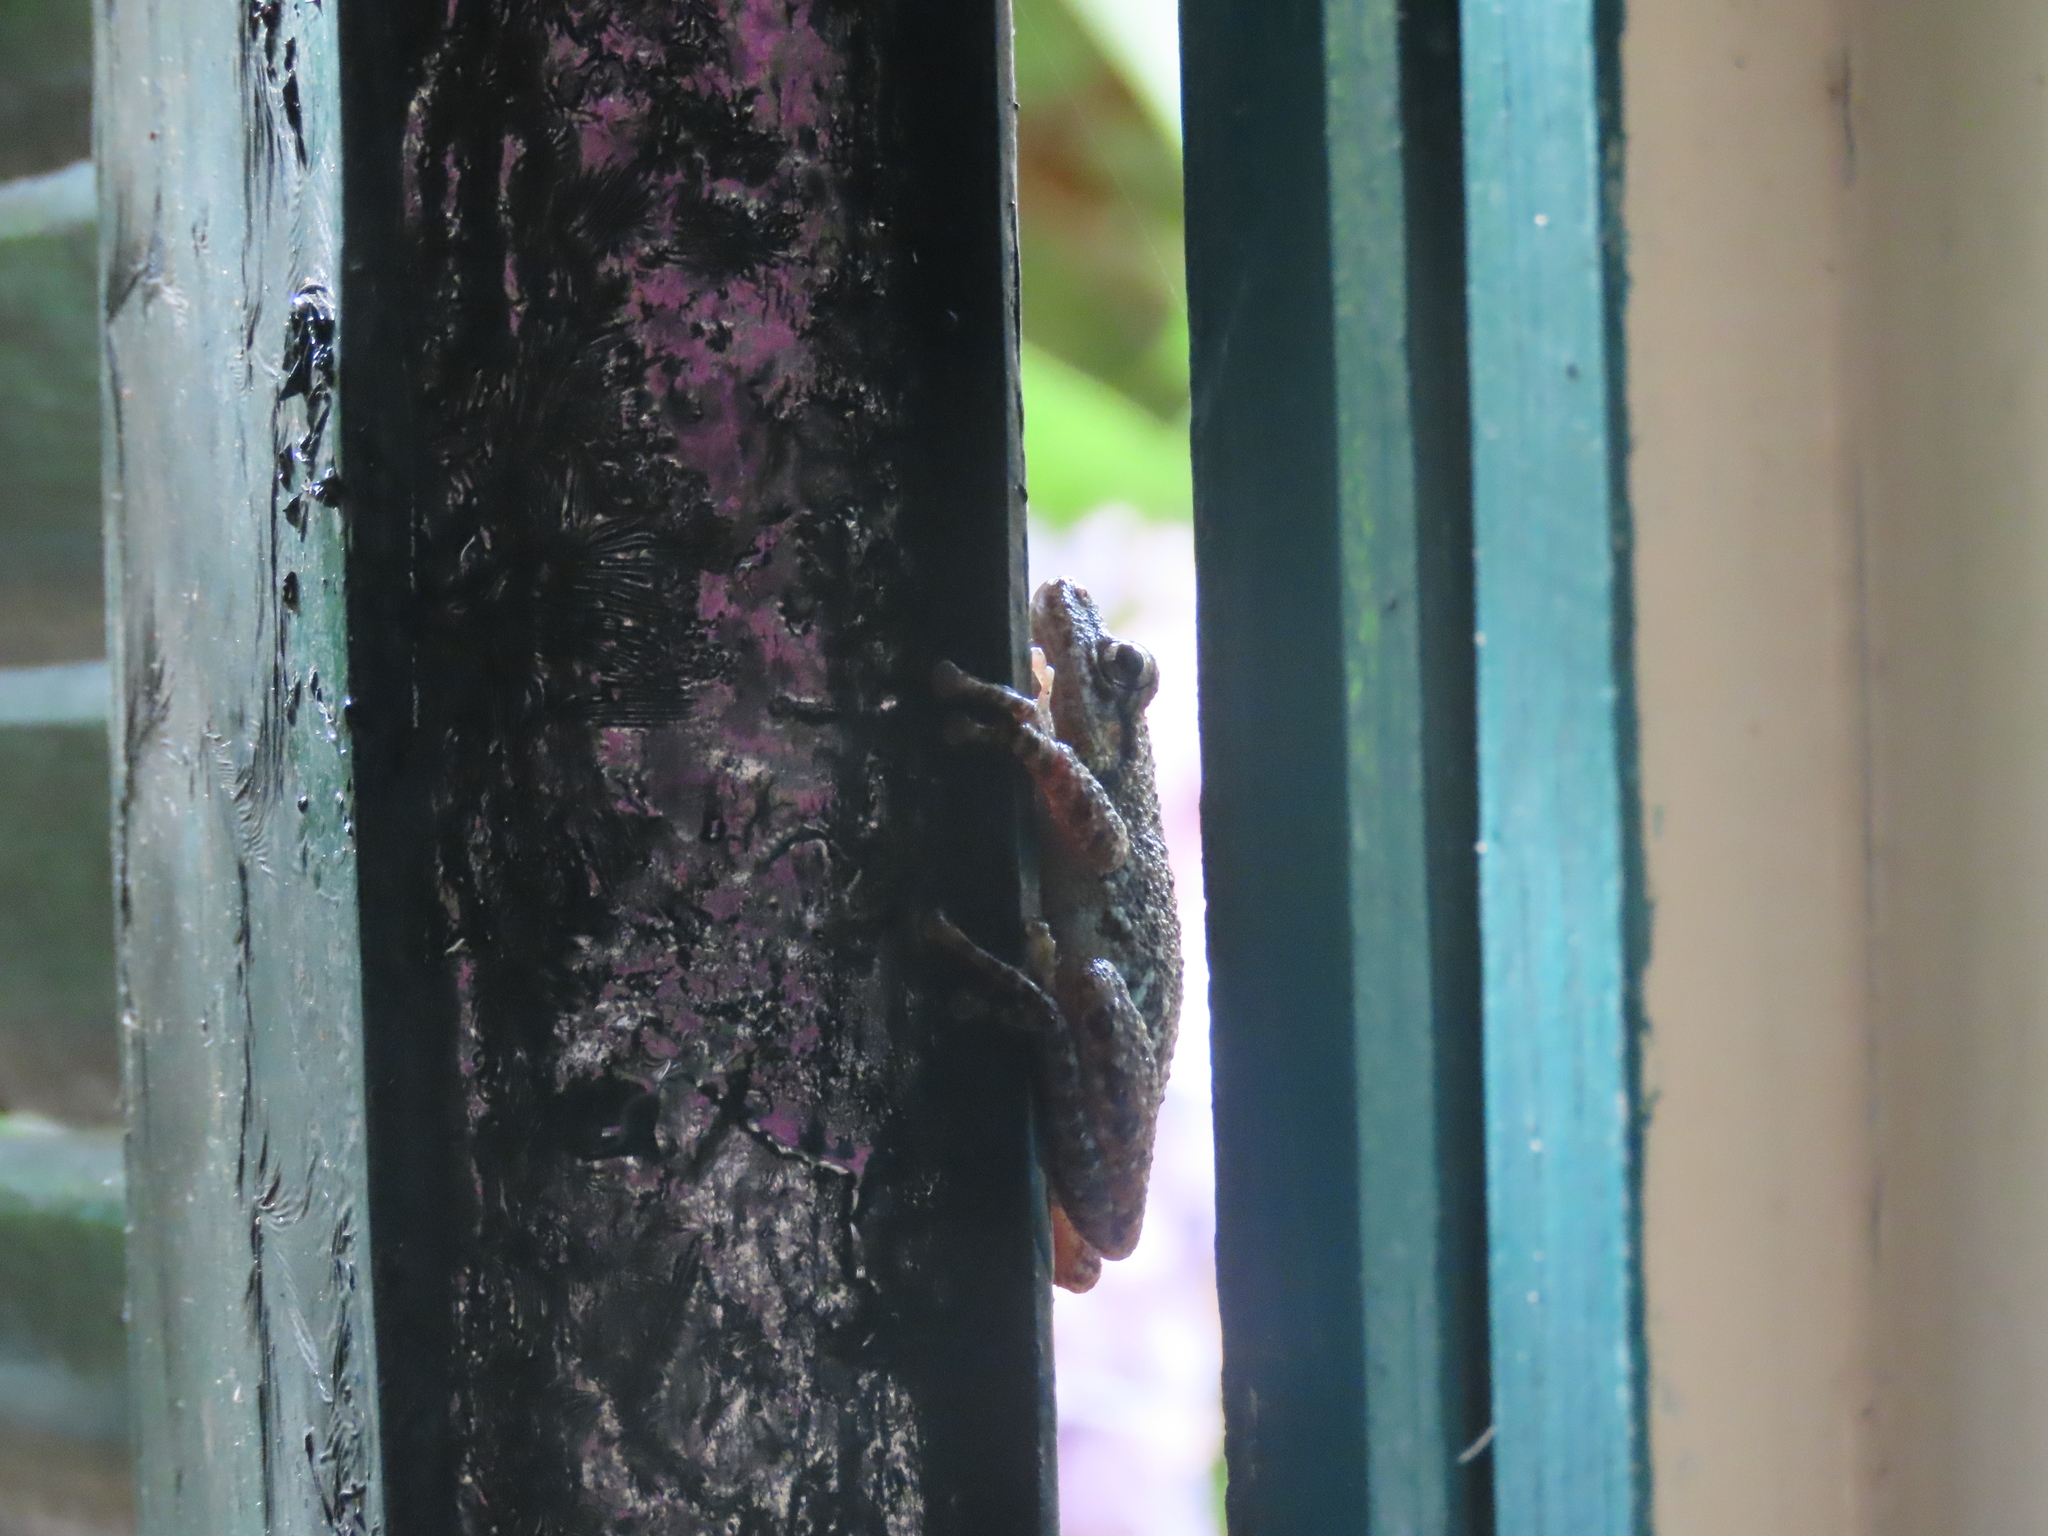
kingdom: Animalia
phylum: Chordata
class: Amphibia
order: Anura
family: Hylidae
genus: Scinax
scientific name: Scinax granulatus
